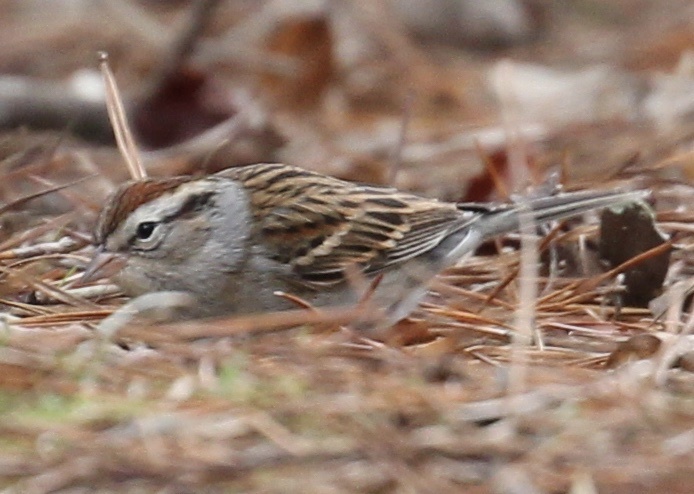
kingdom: Animalia
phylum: Chordata
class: Aves
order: Passeriformes
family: Passerellidae
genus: Spizella
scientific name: Spizella passerina
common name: Chipping sparrow
